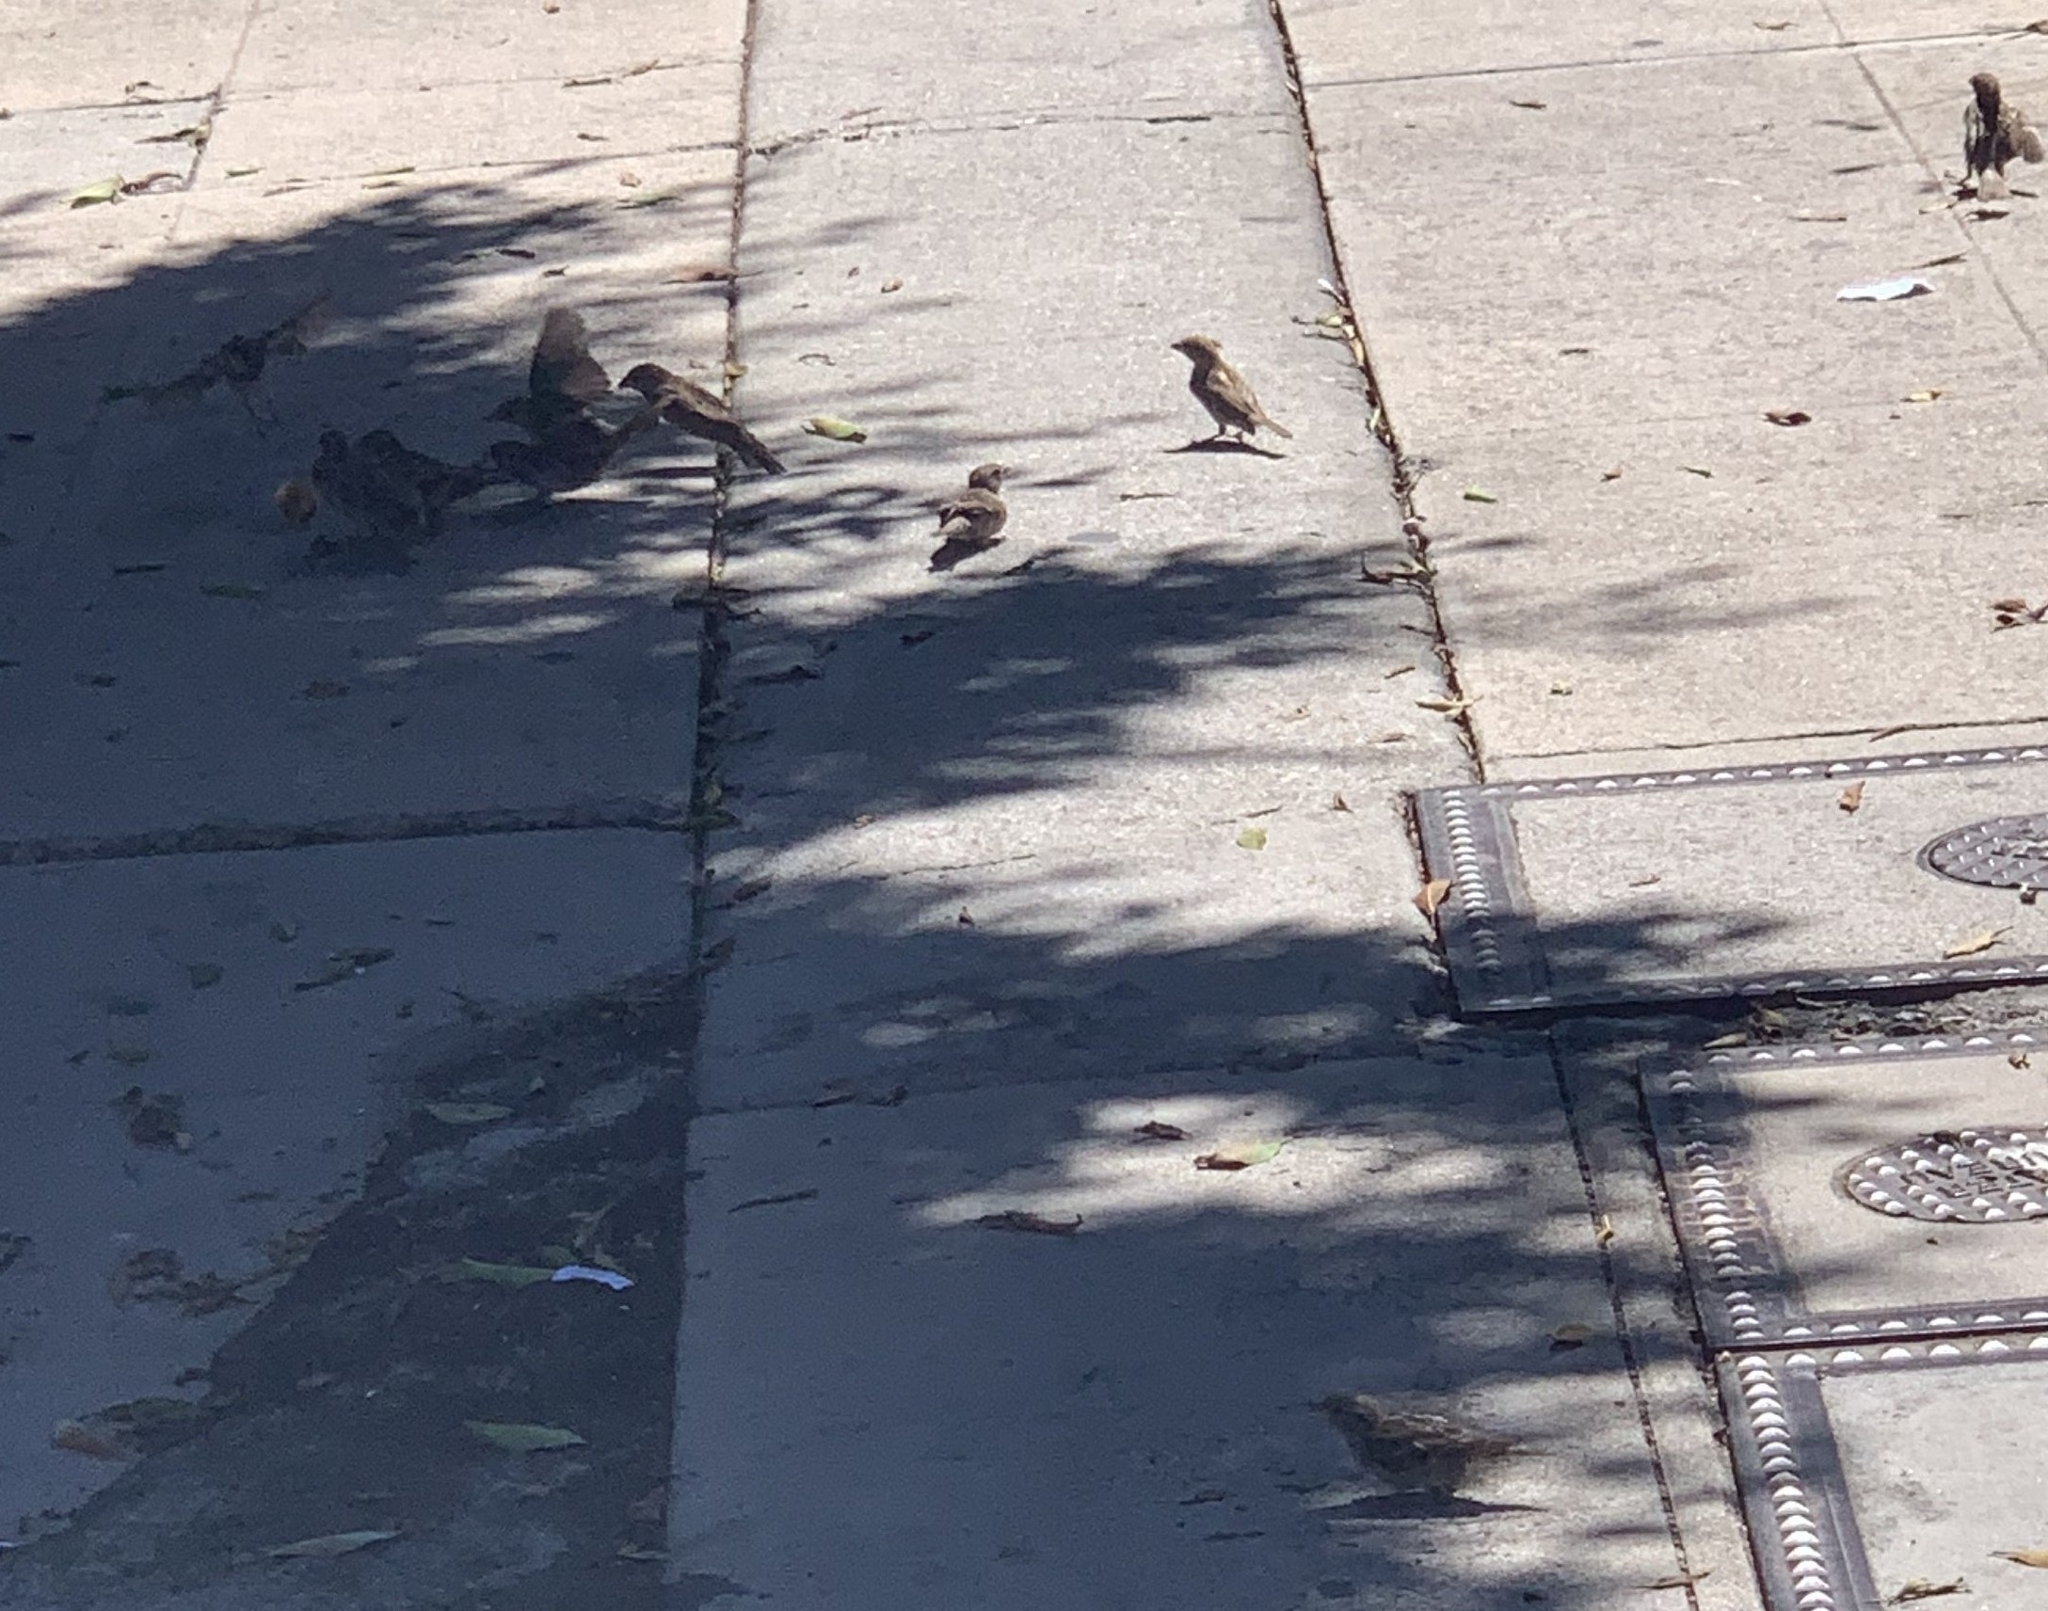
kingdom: Animalia
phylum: Chordata
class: Aves
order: Passeriformes
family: Passeridae
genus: Passer
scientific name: Passer domesticus
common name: House sparrow
